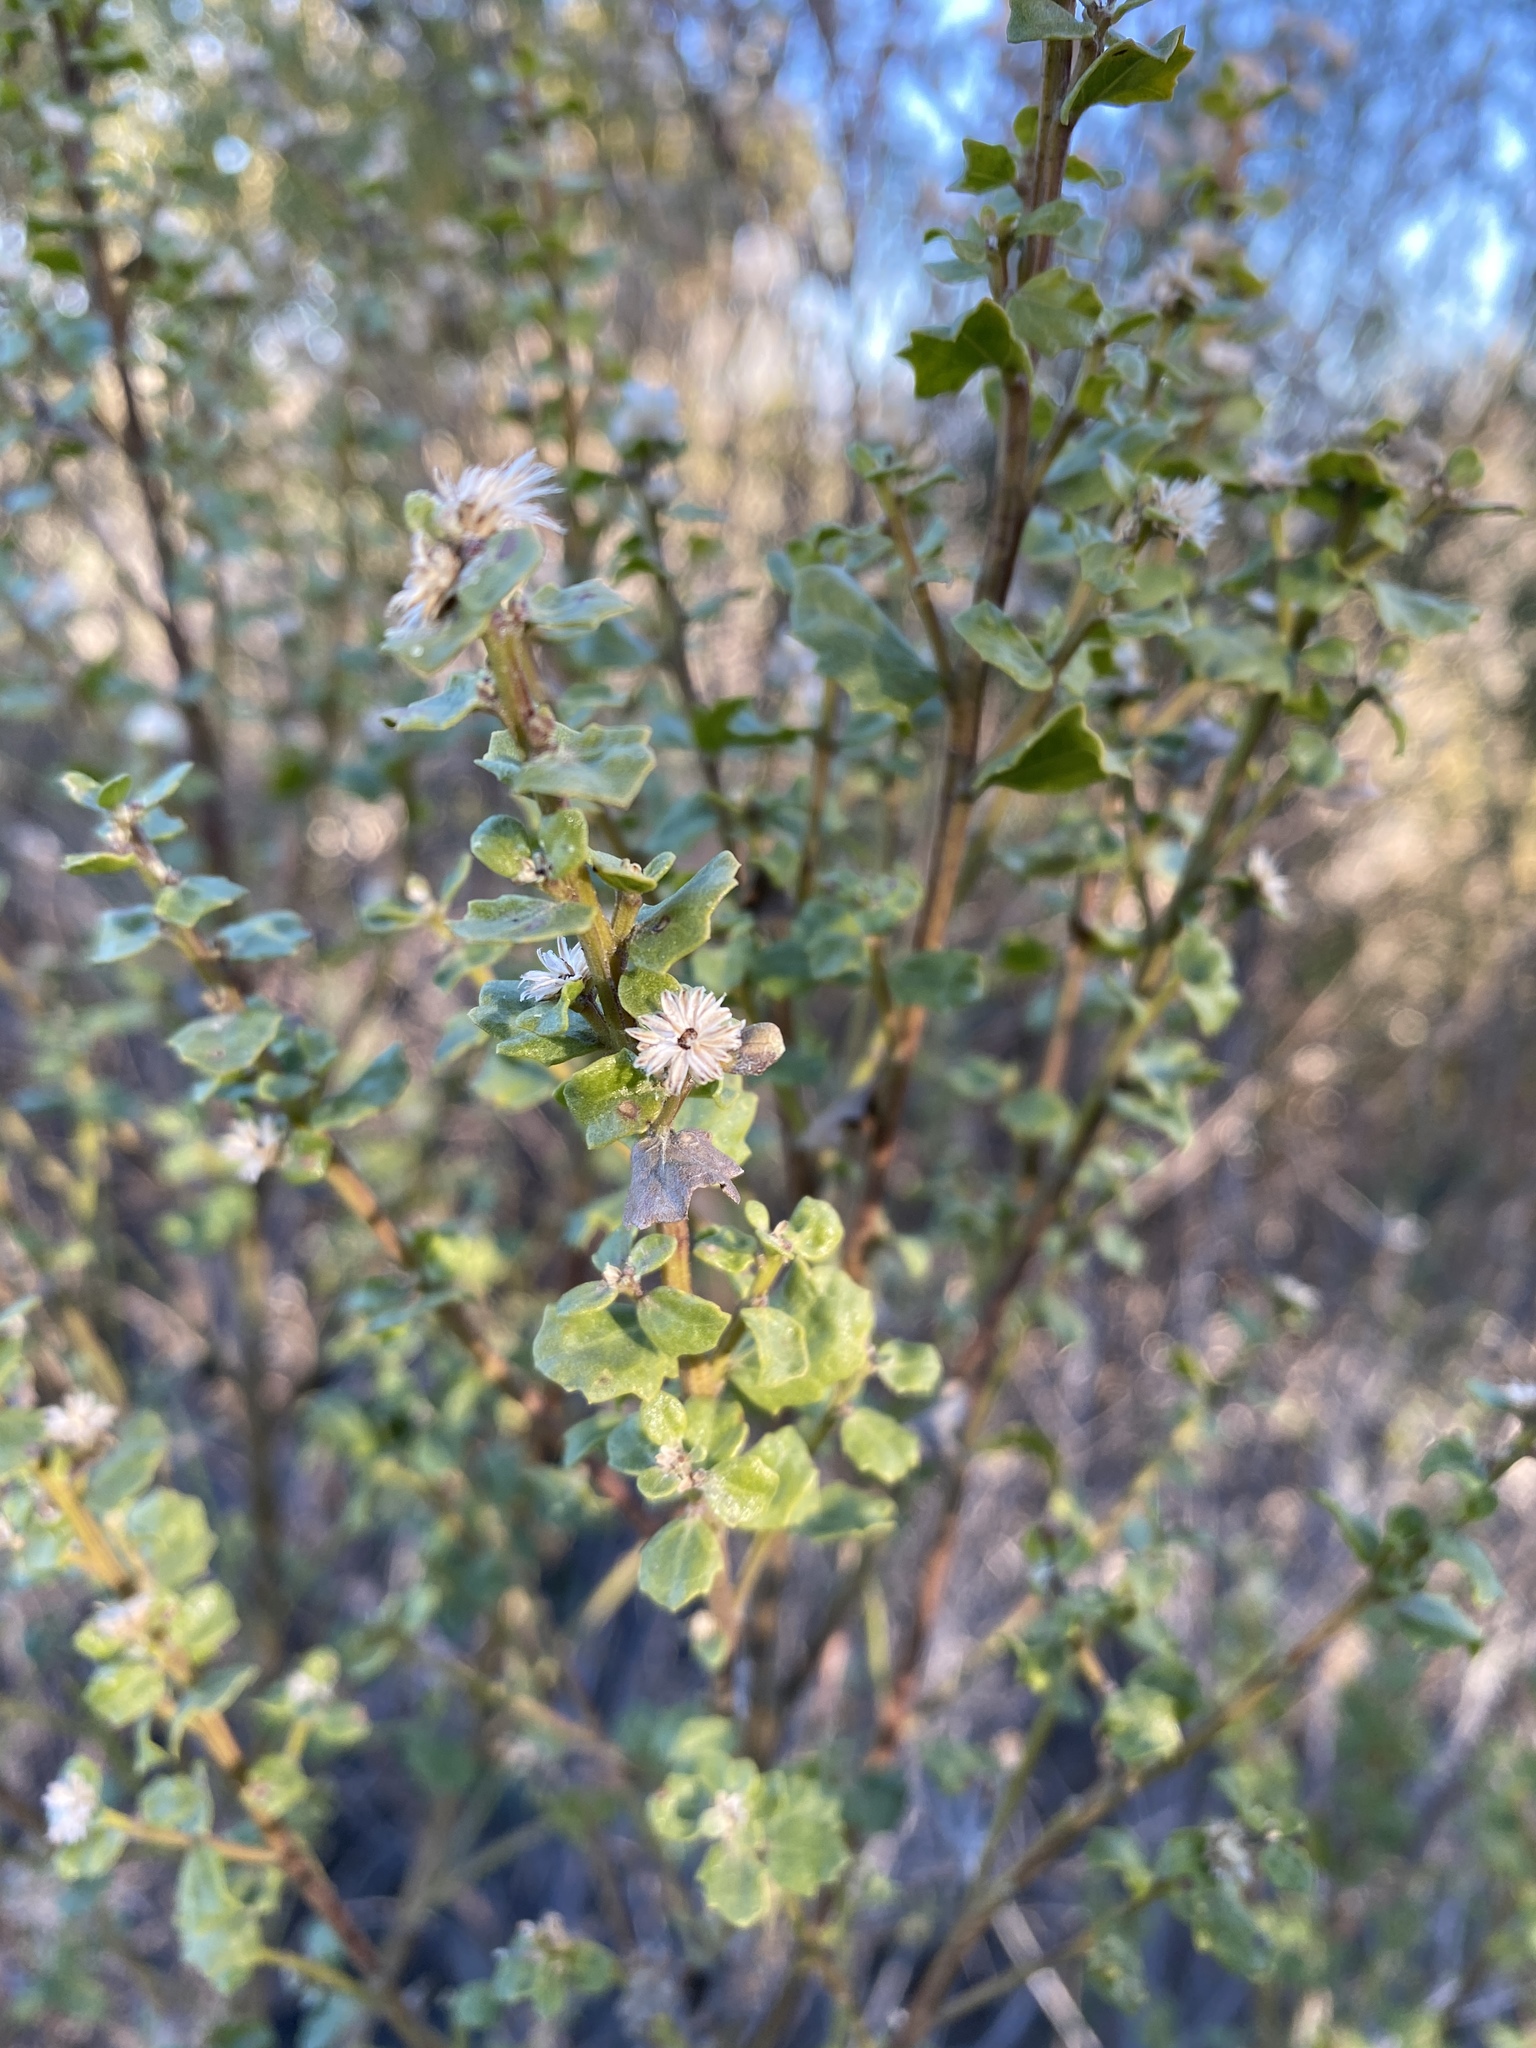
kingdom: Plantae
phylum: Tracheophyta
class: Magnoliopsida
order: Asterales
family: Asteraceae
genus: Baccharis
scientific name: Baccharis pilularis
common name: Coyotebrush
